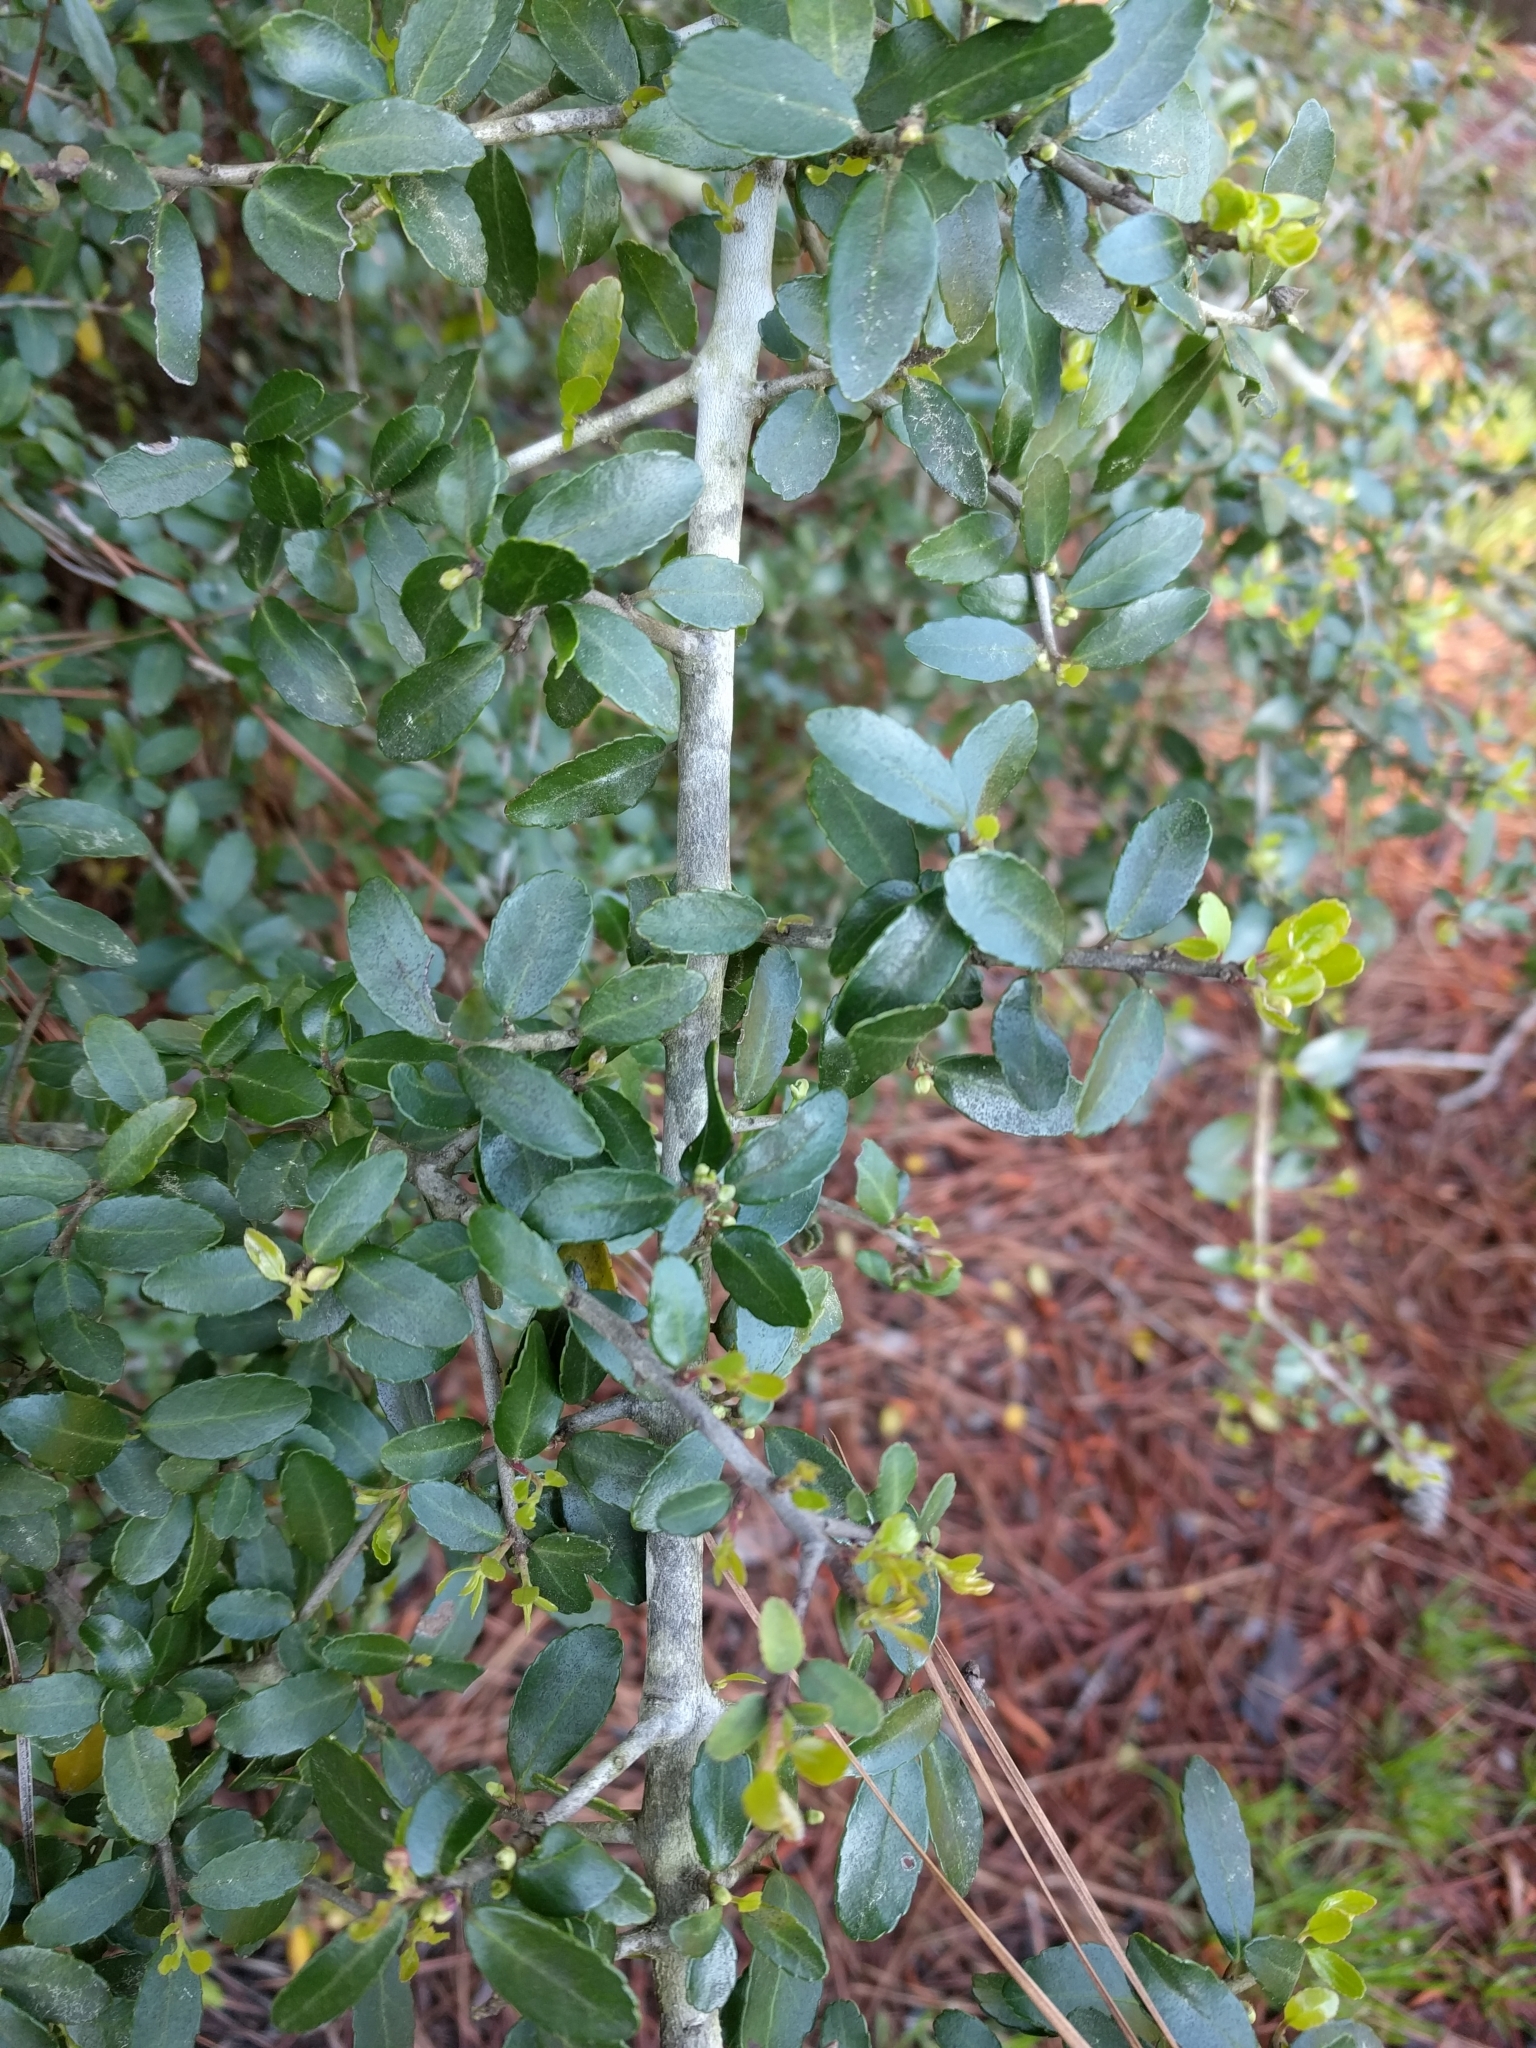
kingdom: Plantae
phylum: Tracheophyta
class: Magnoliopsida
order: Aquifoliales
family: Aquifoliaceae
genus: Ilex
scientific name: Ilex vomitoria
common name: Yaupon holly
